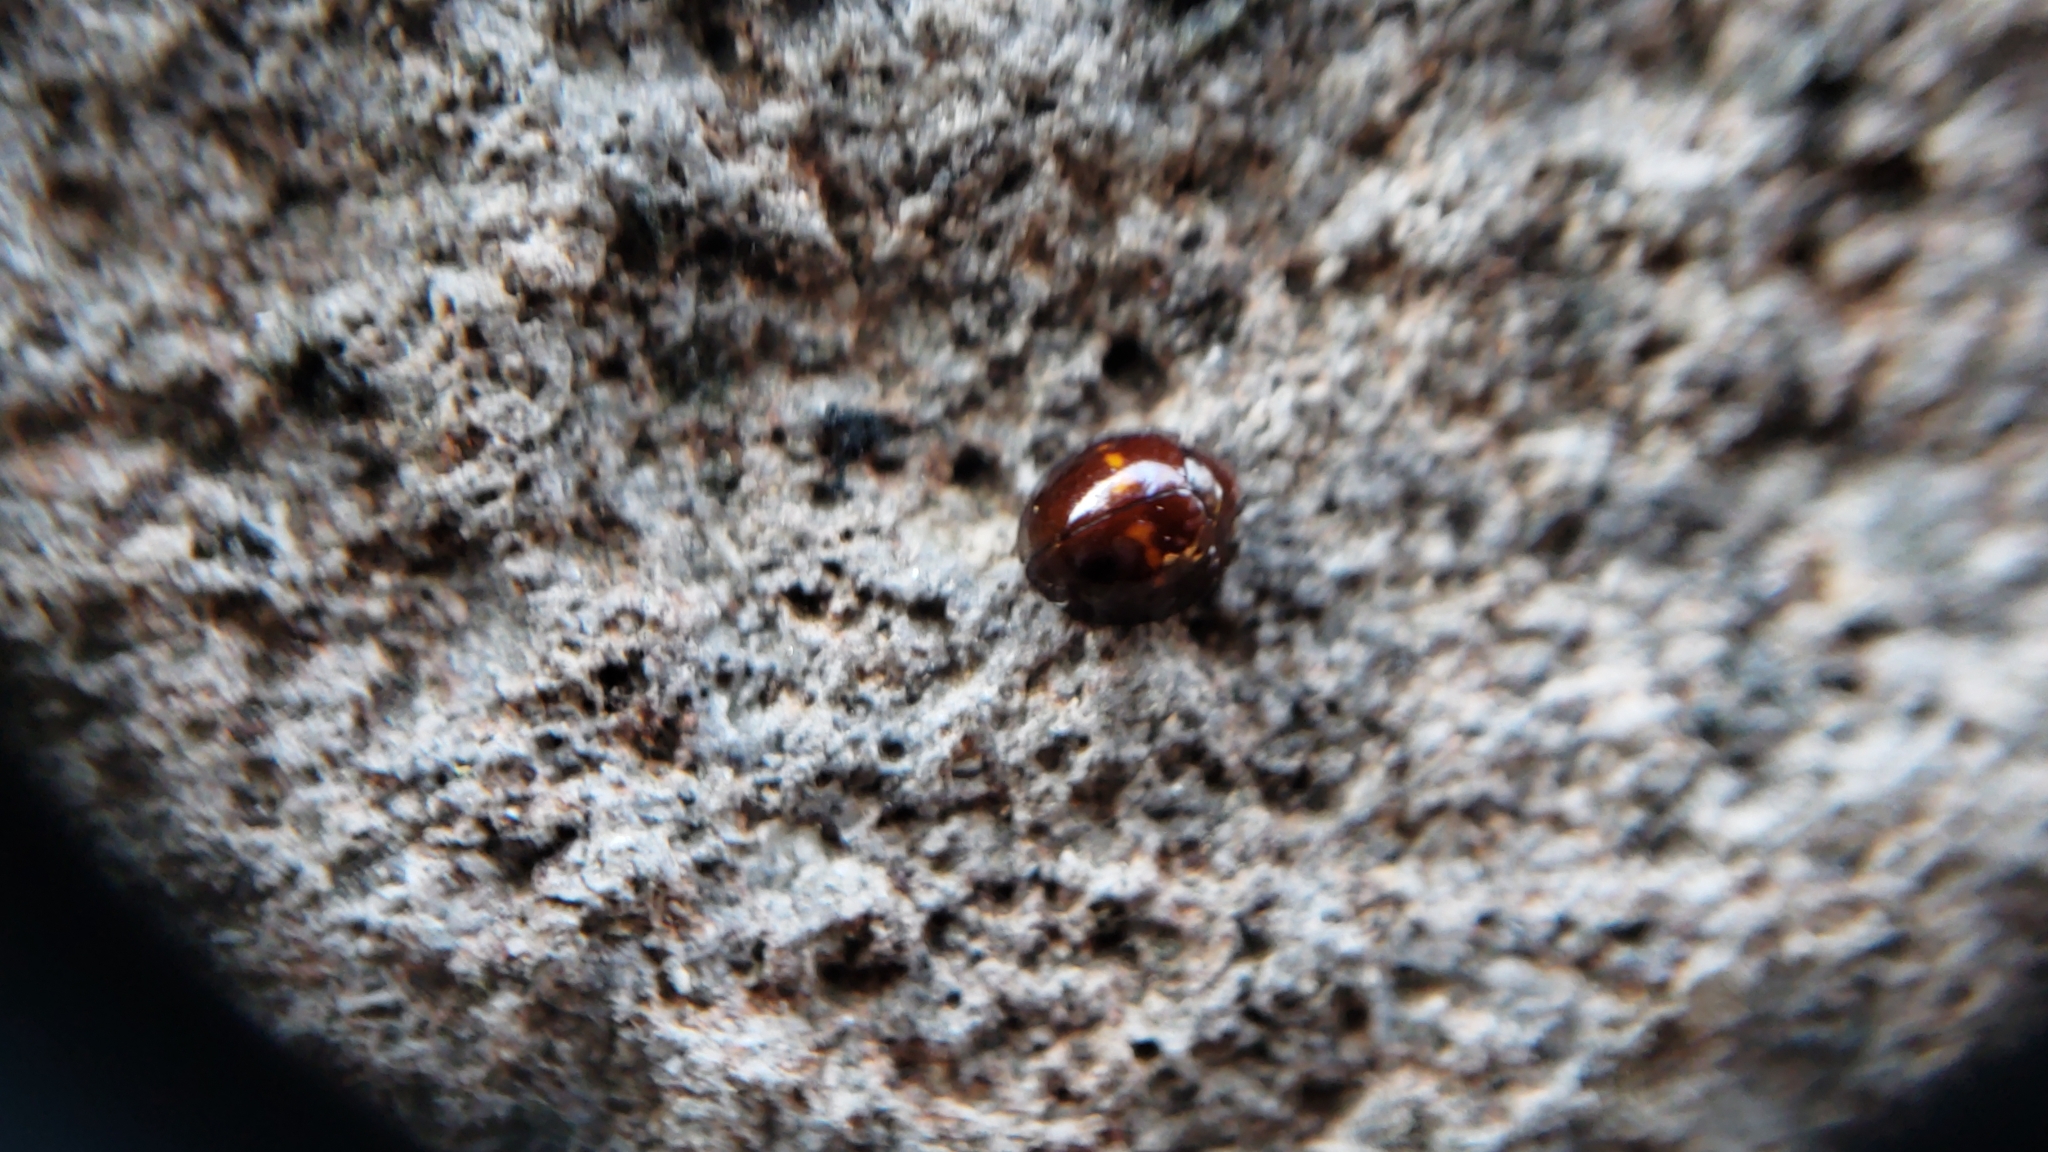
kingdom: Animalia
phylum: Arthropoda
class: Insecta
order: Coleoptera
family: Coccinellidae
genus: Chilocorus
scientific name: Chilocorus bipustulatus
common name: Heather ladybird
